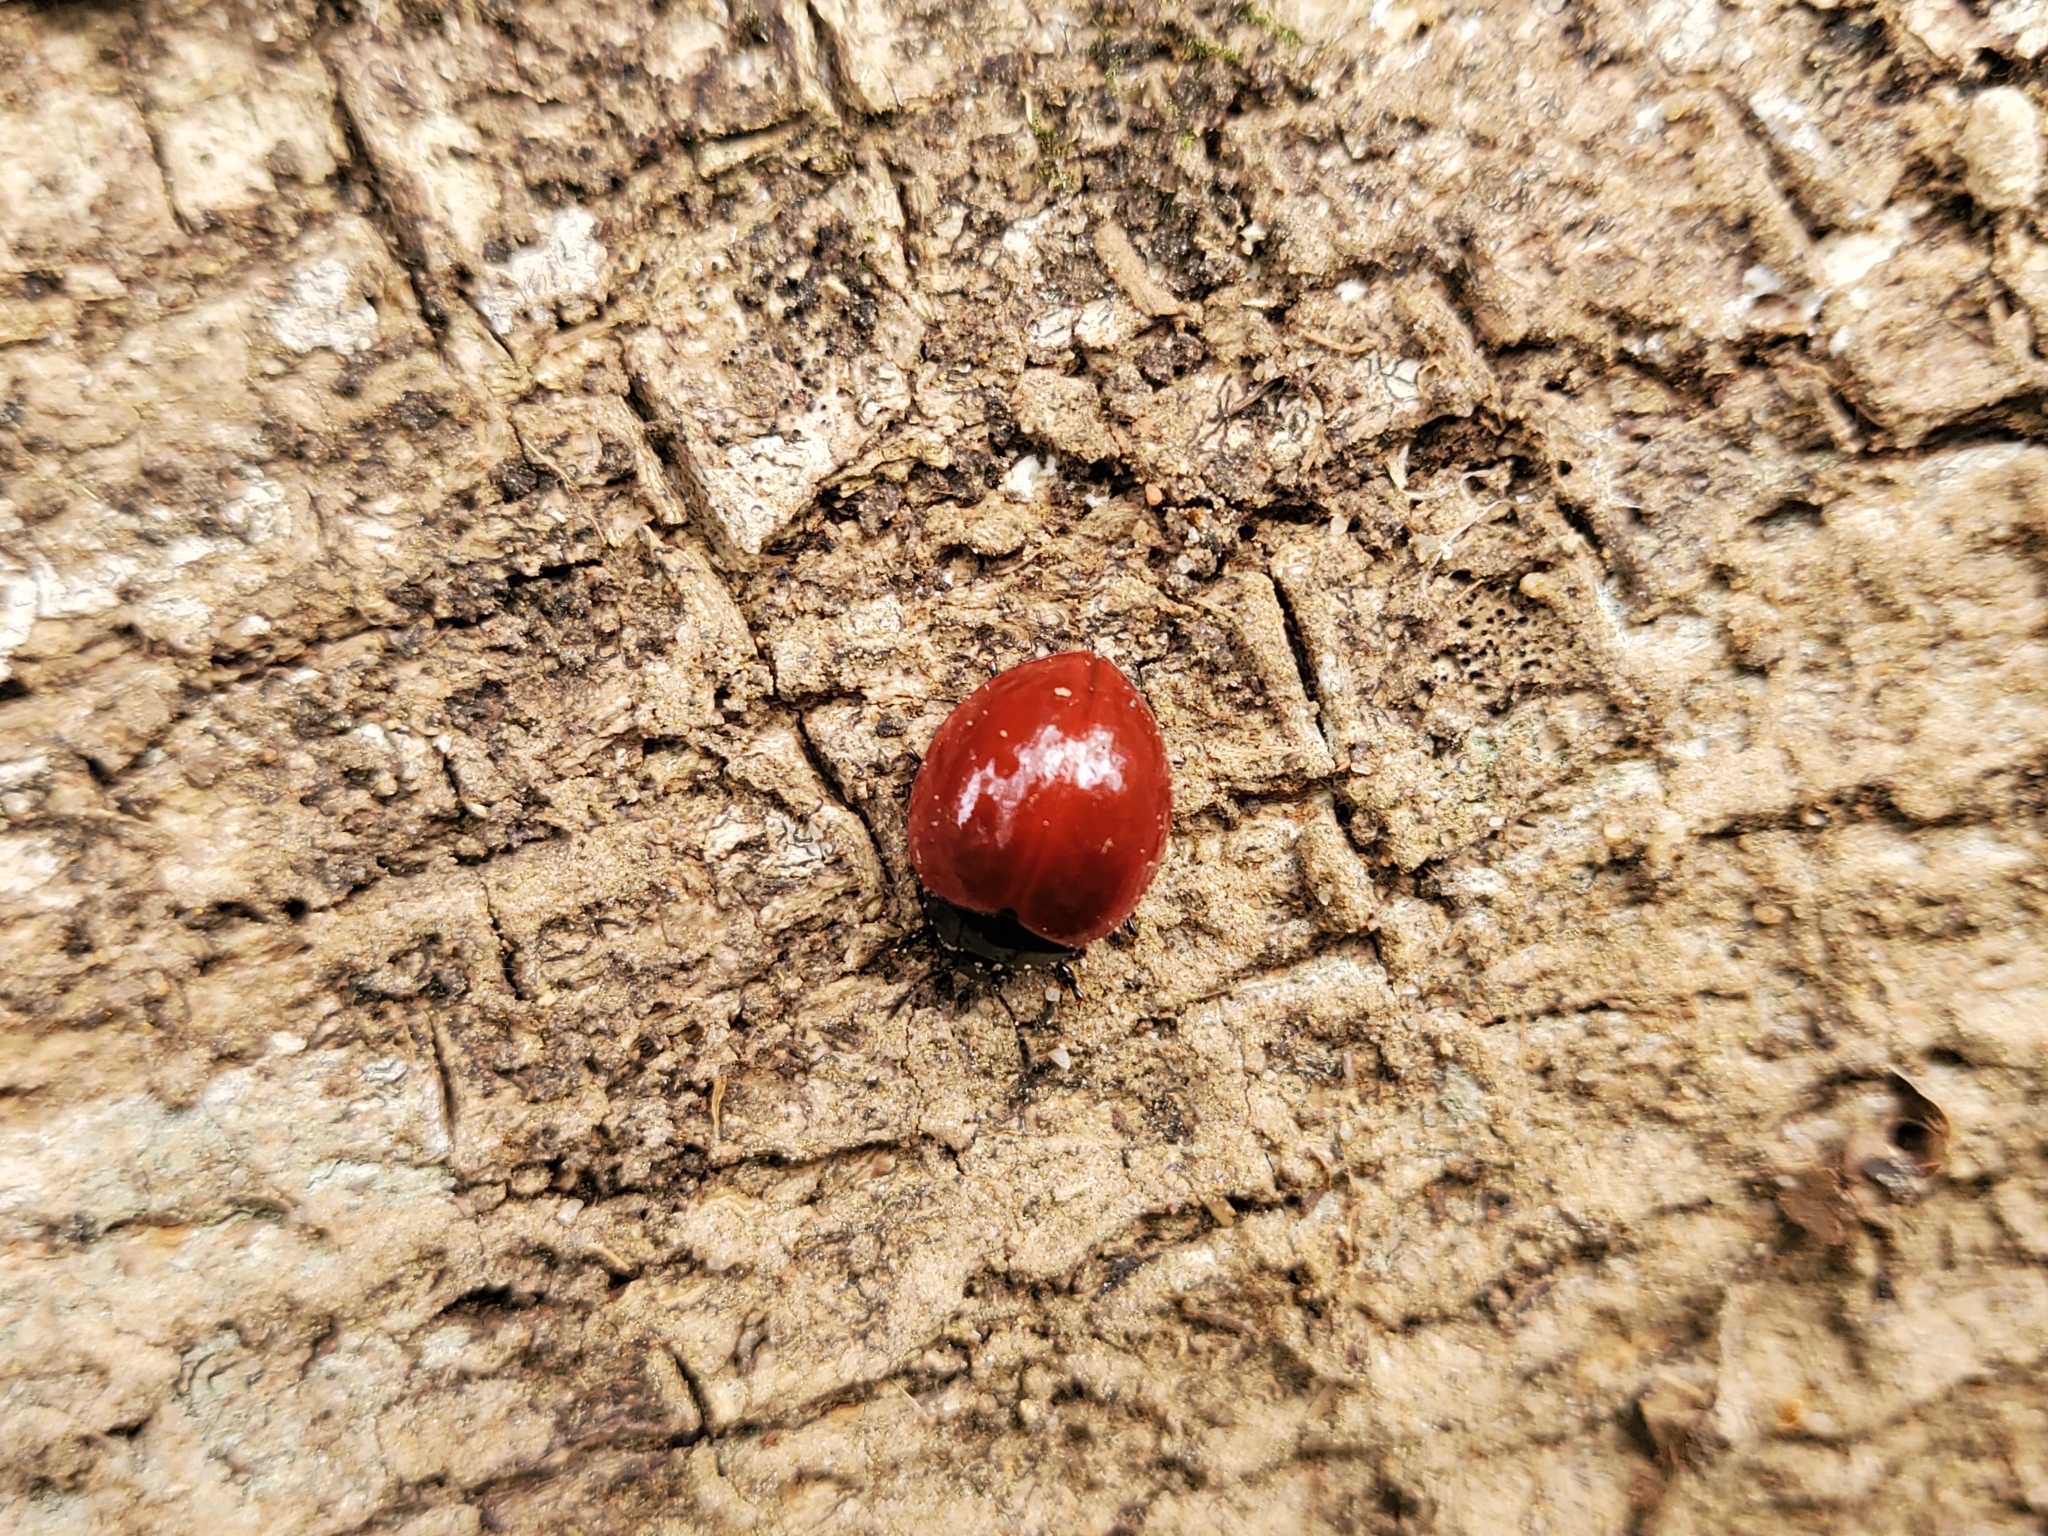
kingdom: Animalia
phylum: Arthropoda
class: Insecta
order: Coleoptera
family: Erotylidae
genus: Aegithus
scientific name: Aegithus
